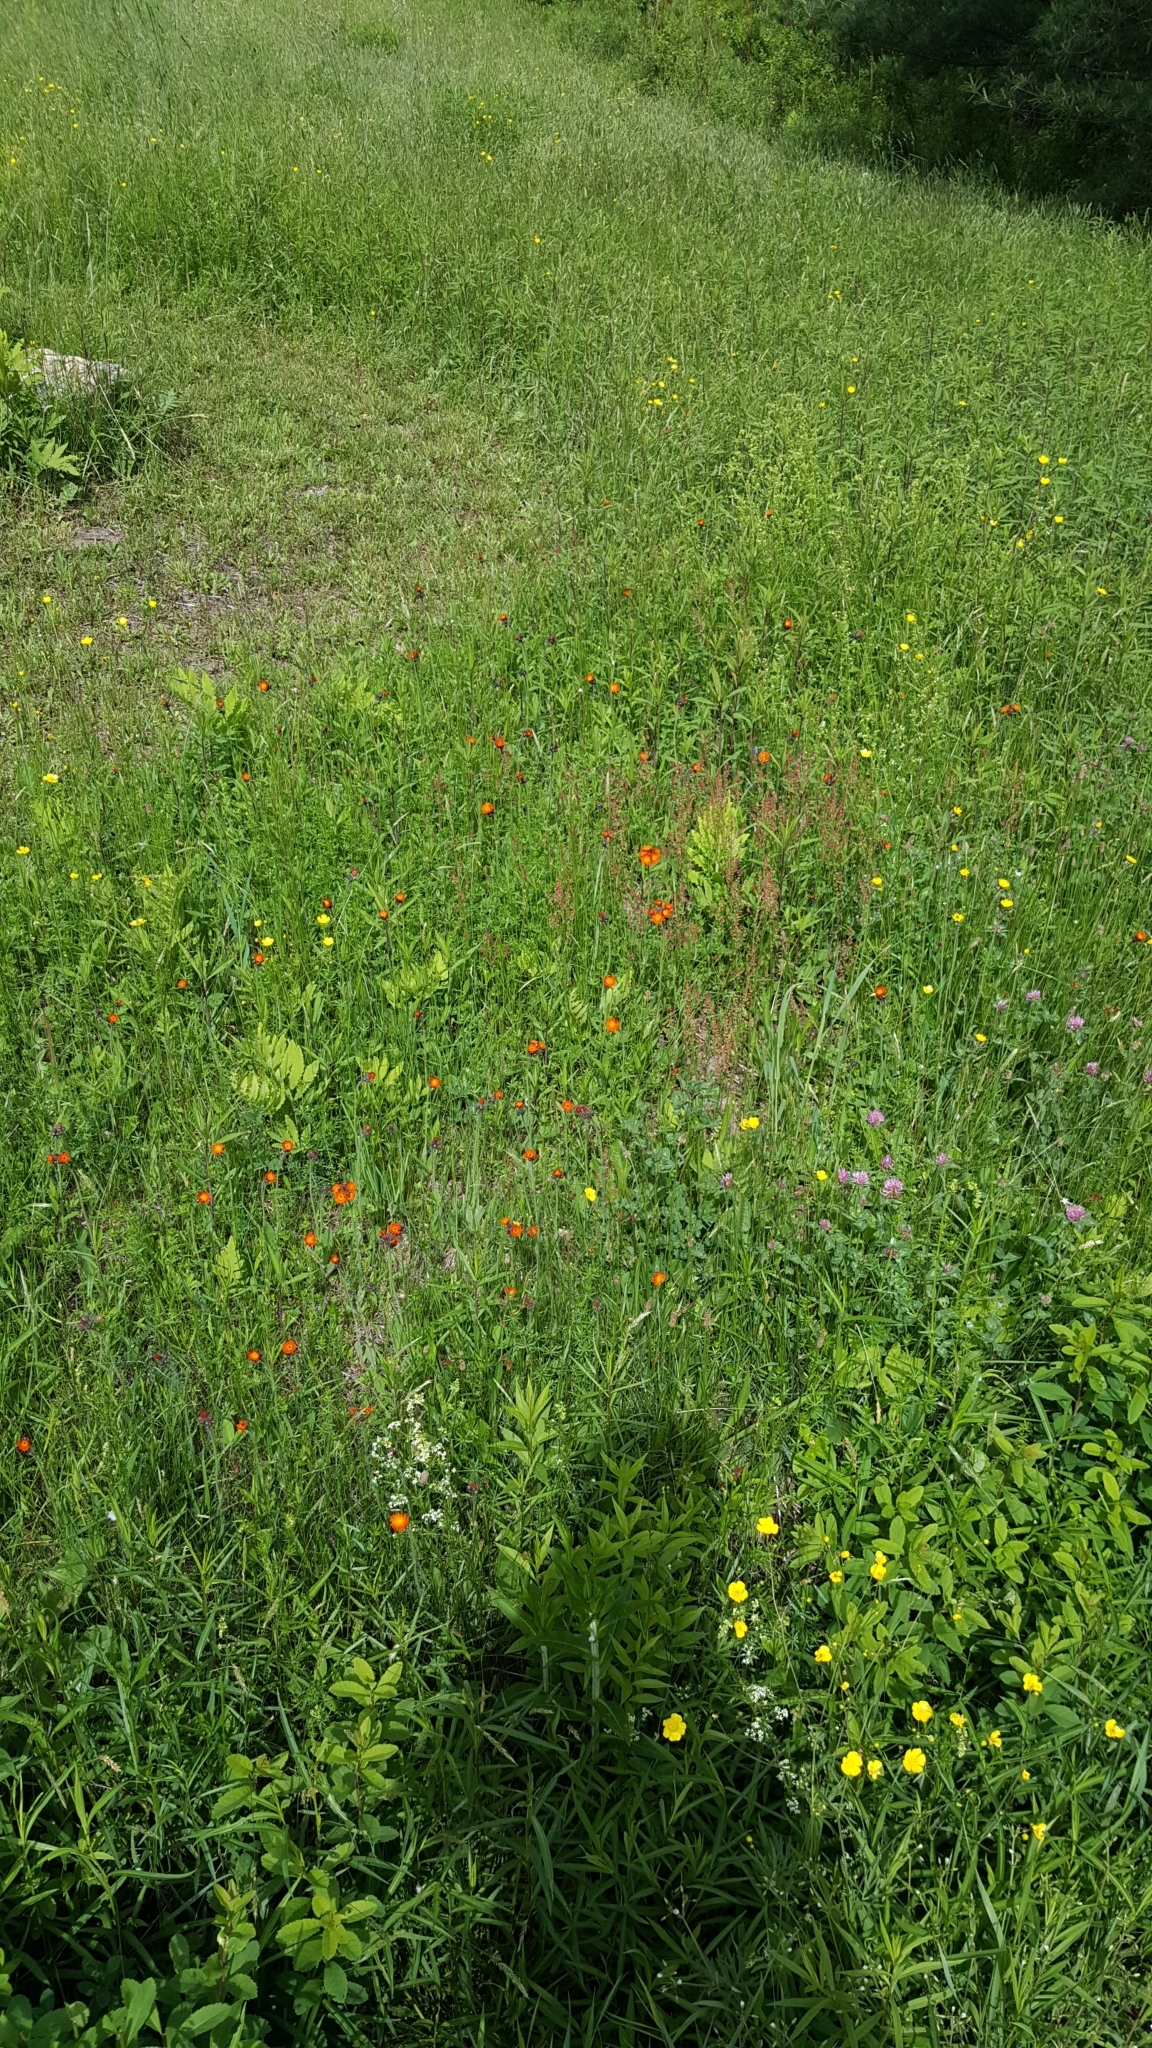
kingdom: Plantae
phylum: Tracheophyta
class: Magnoliopsida
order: Asterales
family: Asteraceae
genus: Pilosella
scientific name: Pilosella aurantiaca
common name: Fox-and-cubs
